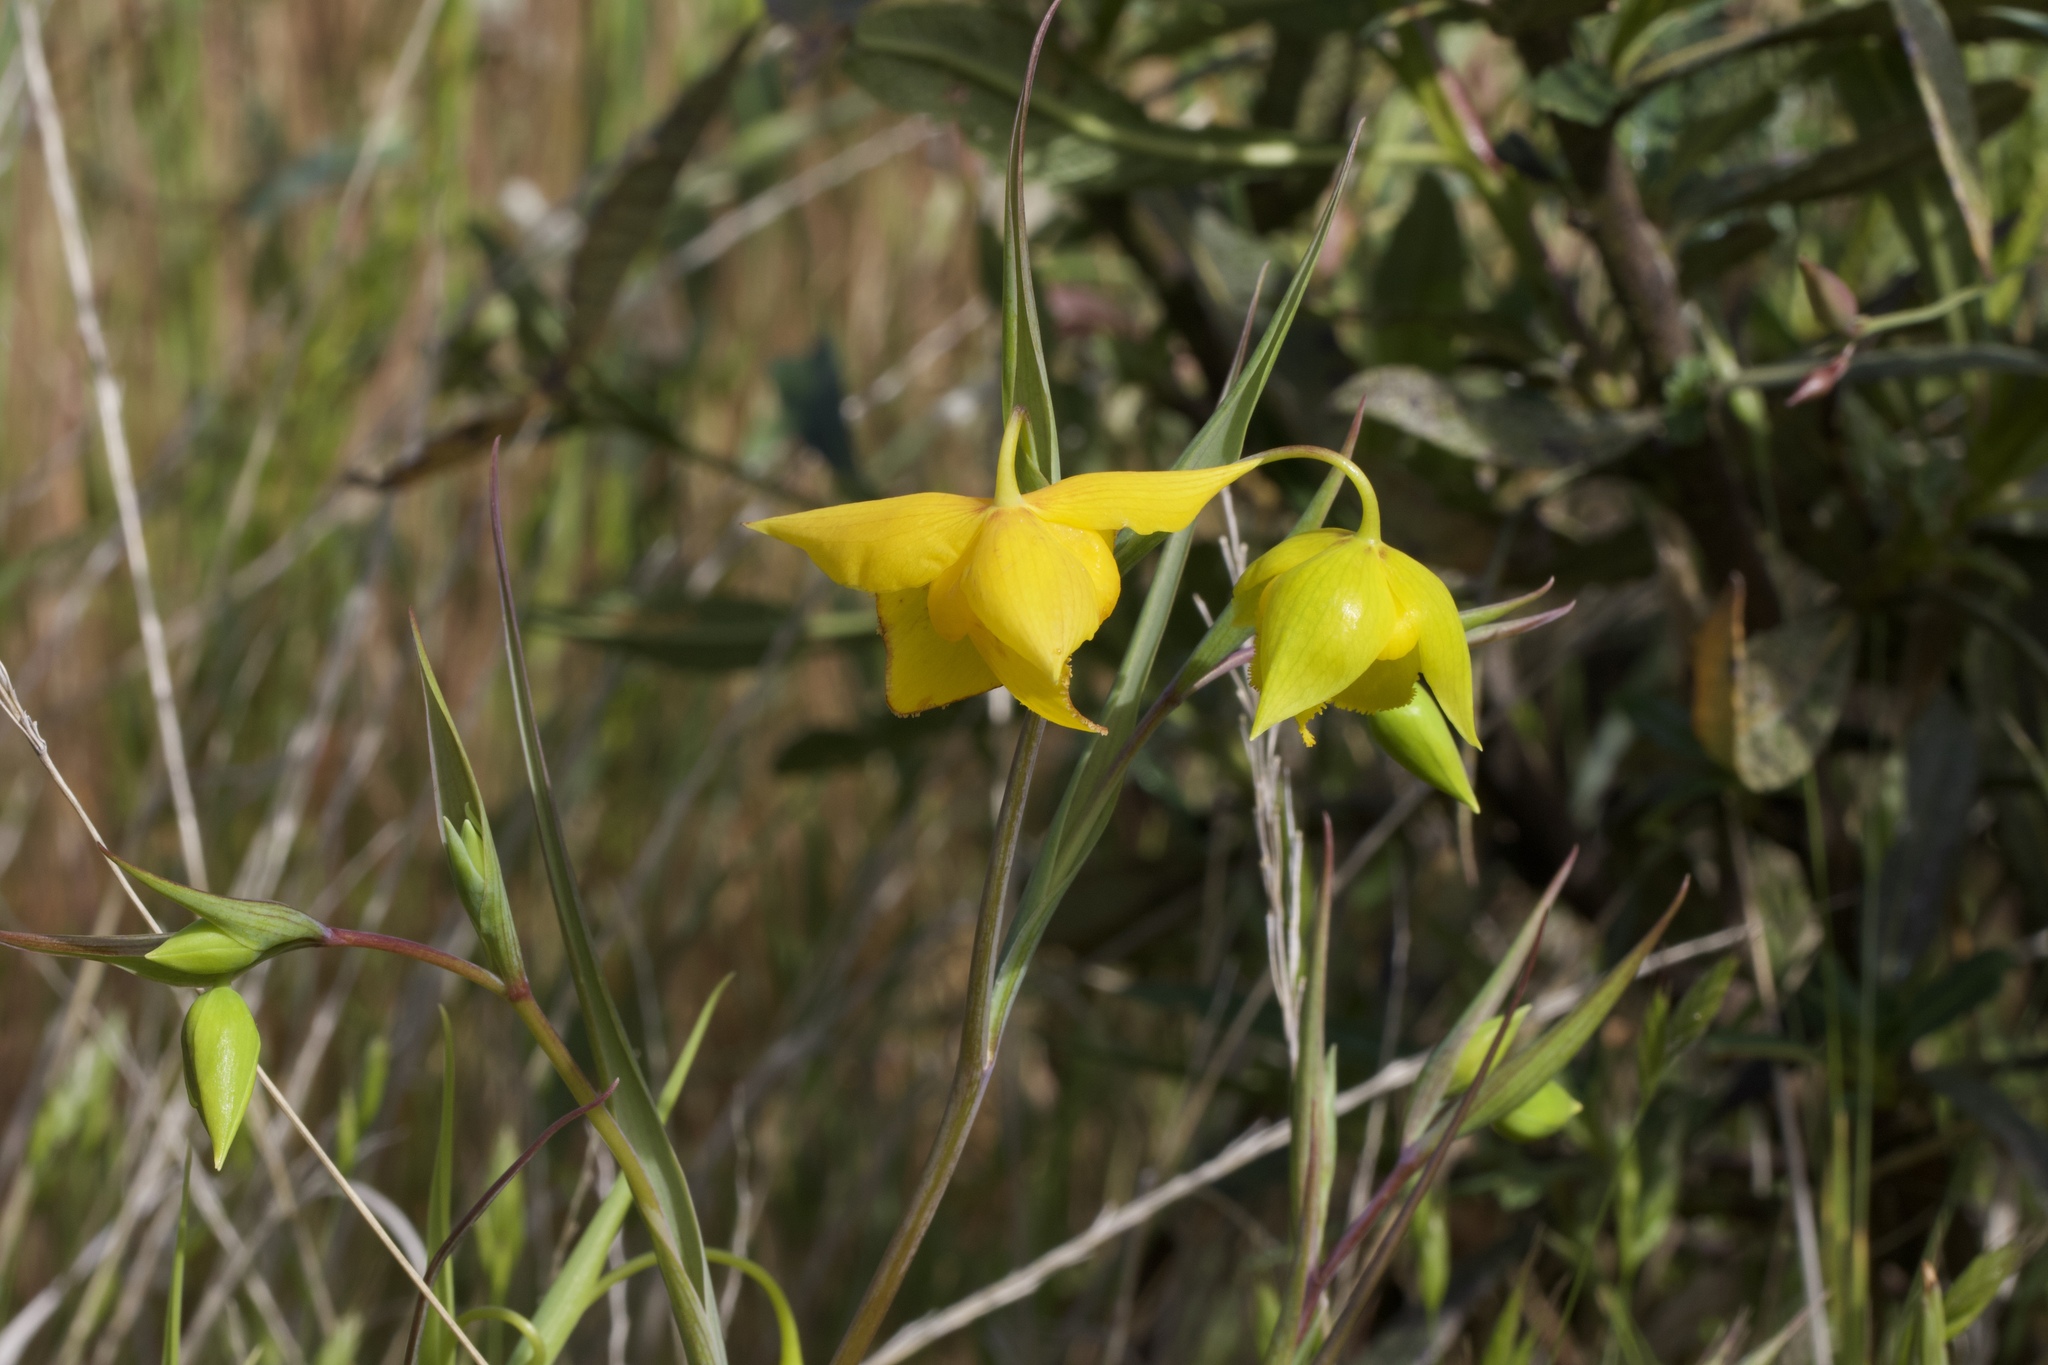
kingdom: Plantae
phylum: Tracheophyta
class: Liliopsida
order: Liliales
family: Liliaceae
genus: Calochortus
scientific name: Calochortus amabilis
